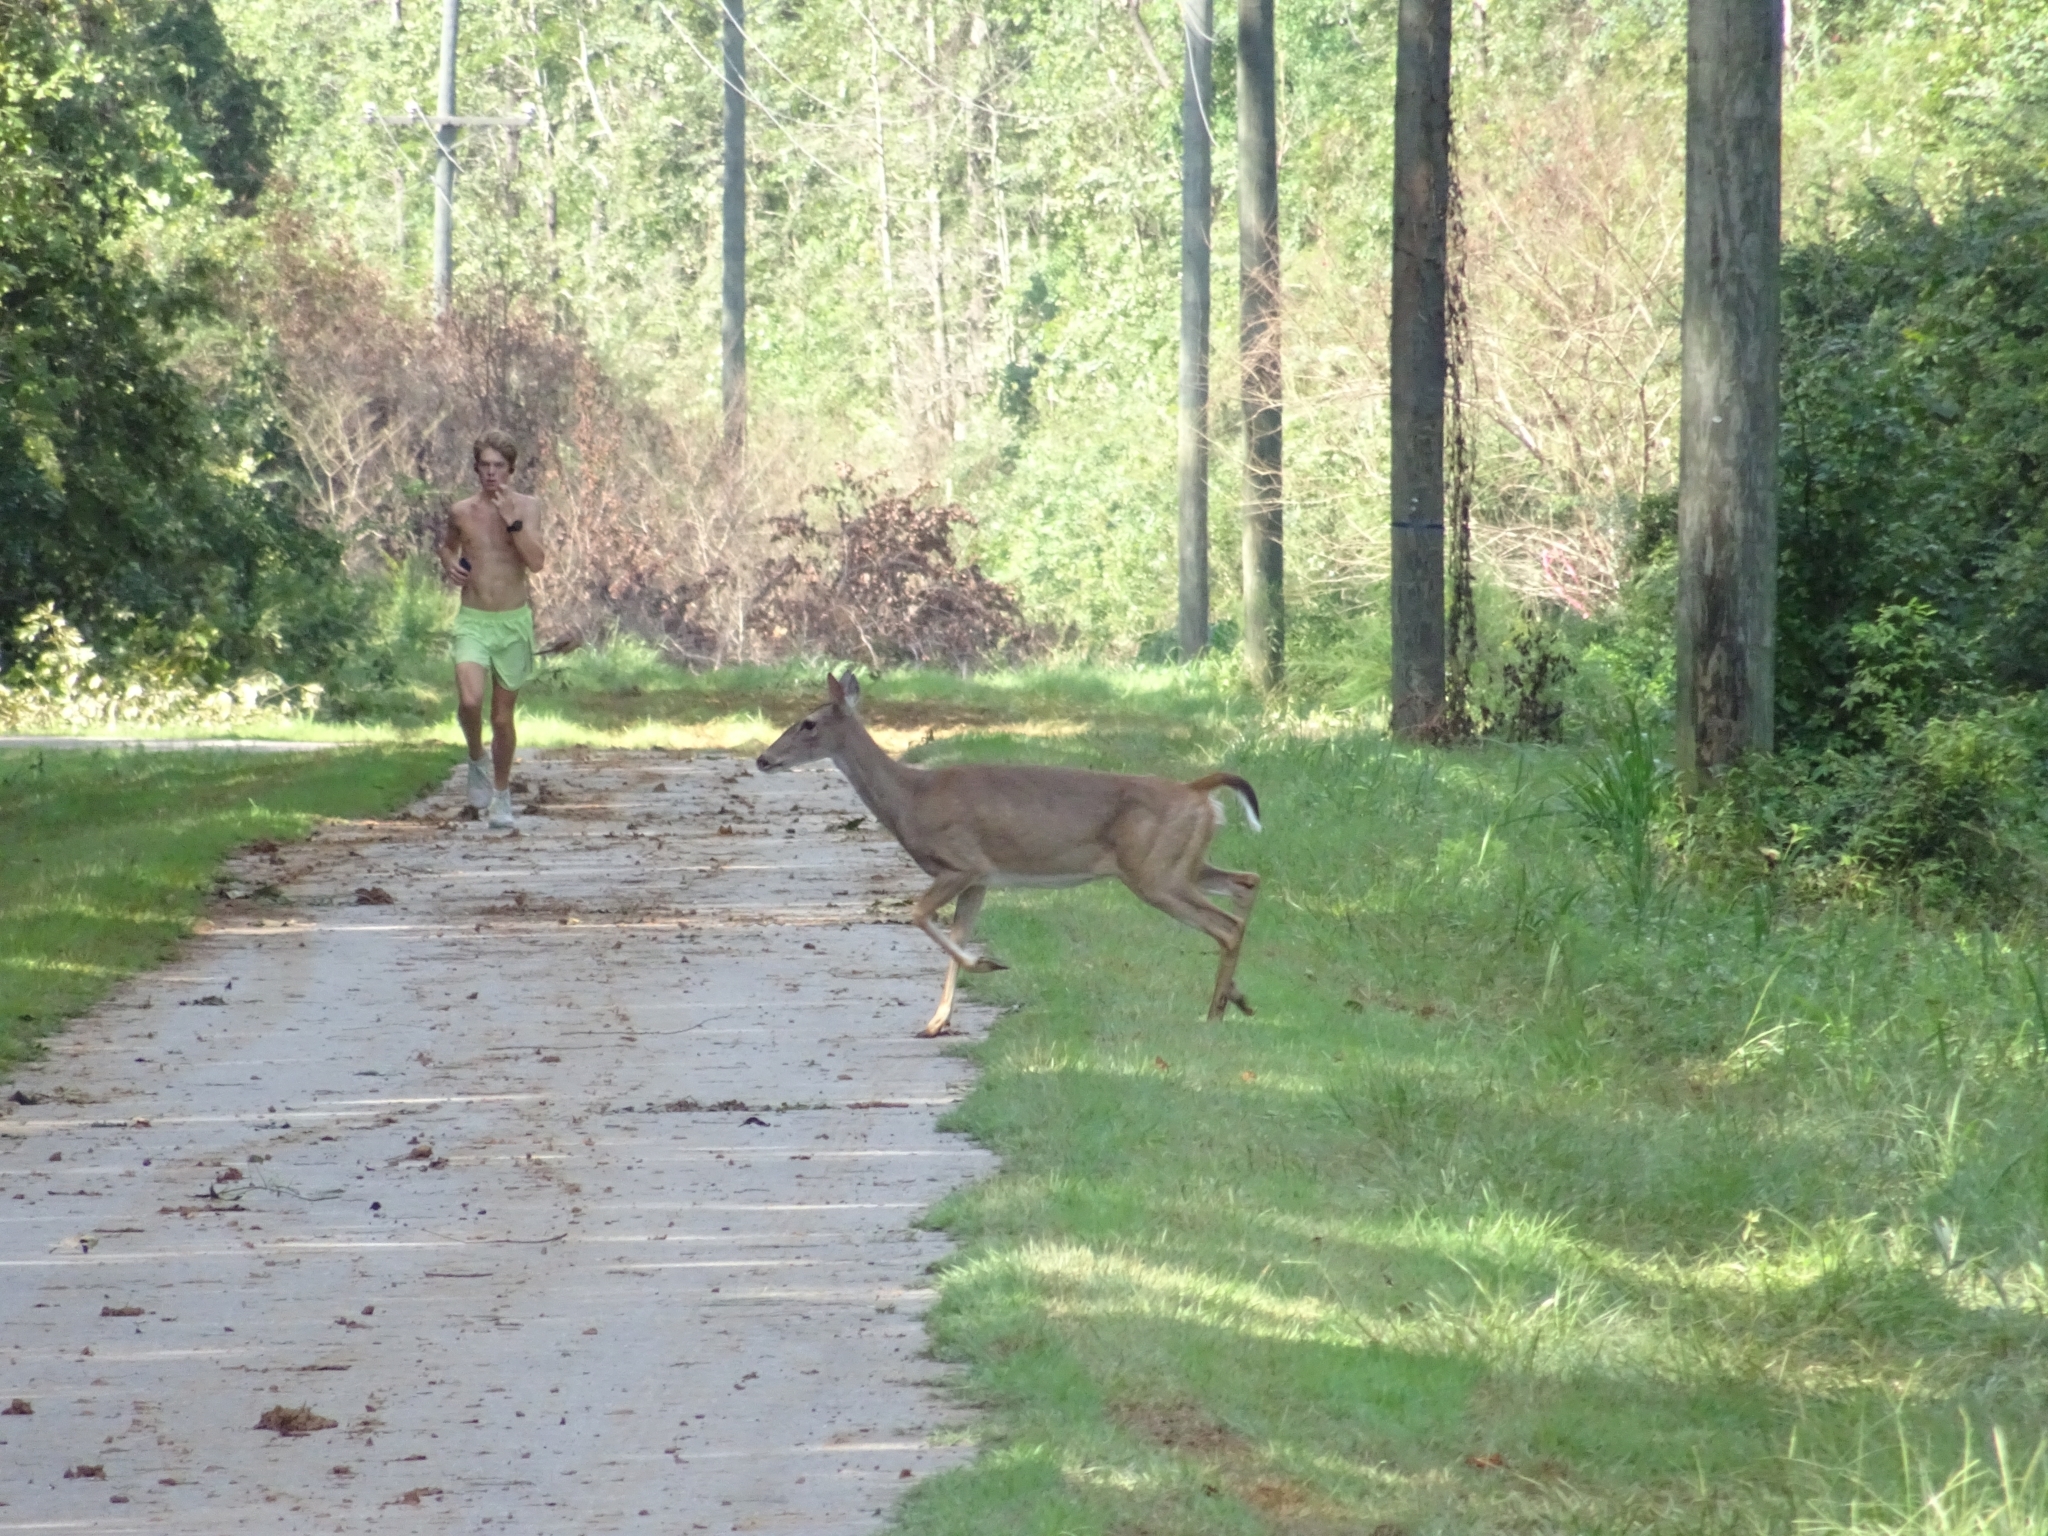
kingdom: Animalia
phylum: Chordata
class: Mammalia
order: Artiodactyla
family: Cervidae
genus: Odocoileus
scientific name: Odocoileus virginianus
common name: White-tailed deer
